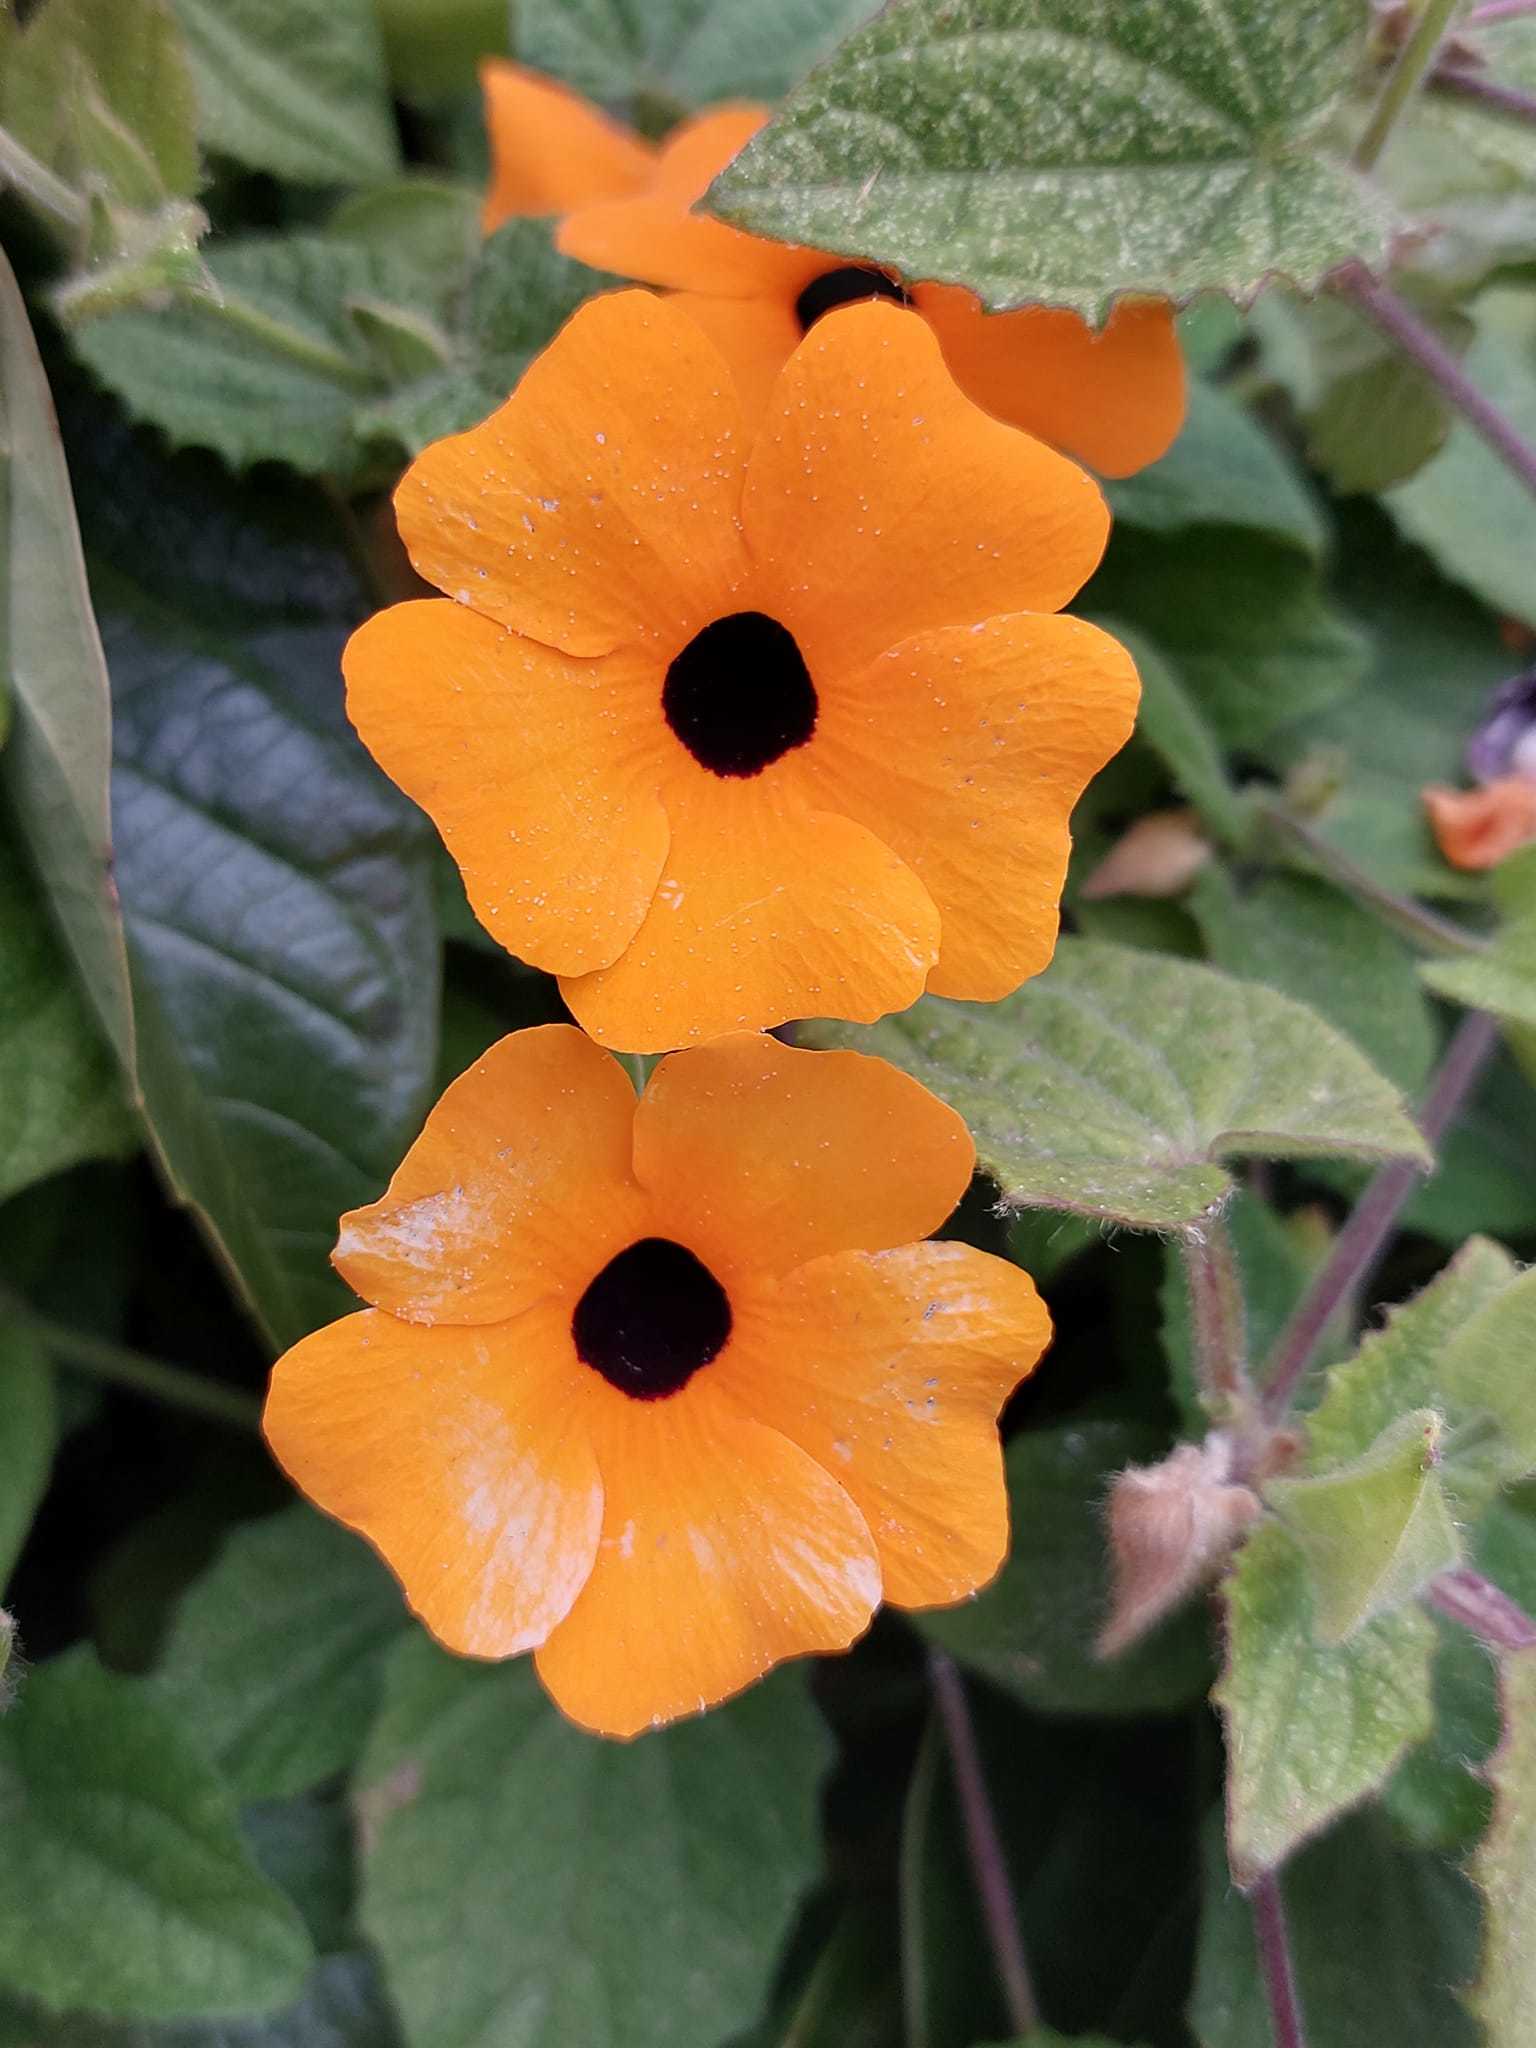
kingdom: Plantae
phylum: Tracheophyta
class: Magnoliopsida
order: Lamiales
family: Acanthaceae
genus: Thunbergia
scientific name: Thunbergia alata
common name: Blackeyed susan vine
